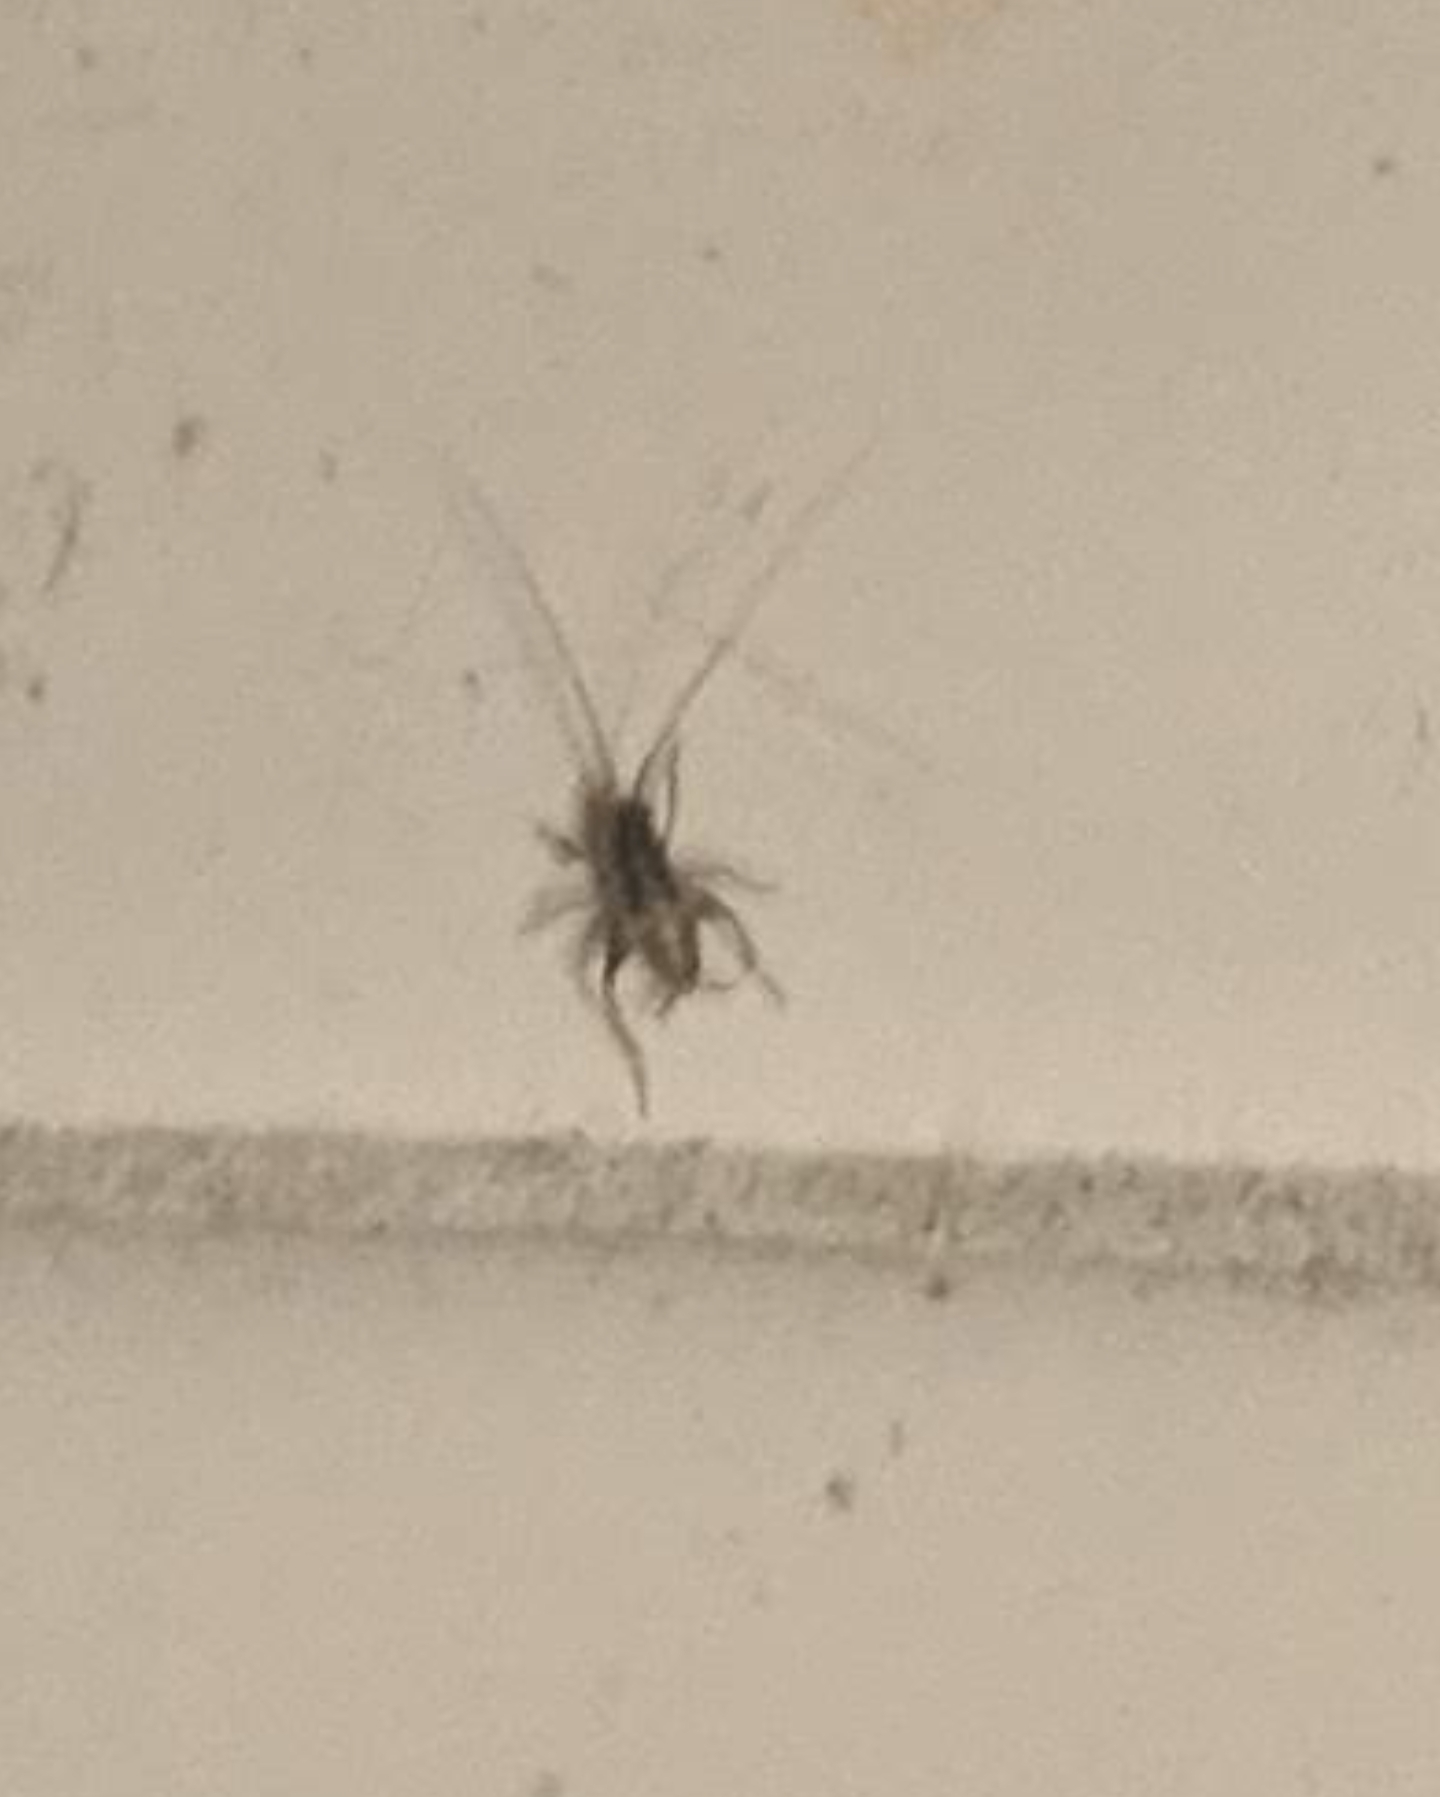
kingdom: Animalia
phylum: Arthropoda
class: Insecta
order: Orthoptera
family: Rhaphidophoridae
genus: Tachycines
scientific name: Tachycines asynamorus
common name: Greenhouse camel cricket
